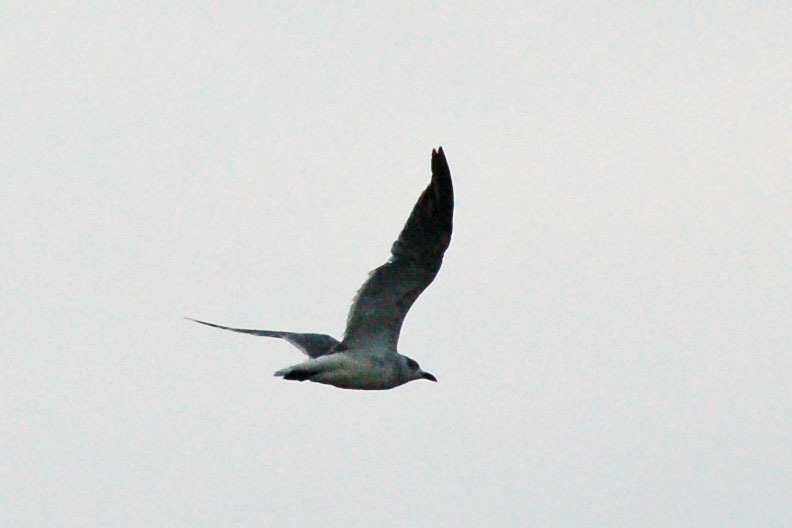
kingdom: Animalia
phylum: Chordata
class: Aves
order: Charadriiformes
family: Laridae
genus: Leucophaeus
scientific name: Leucophaeus atricilla
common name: Laughing gull
